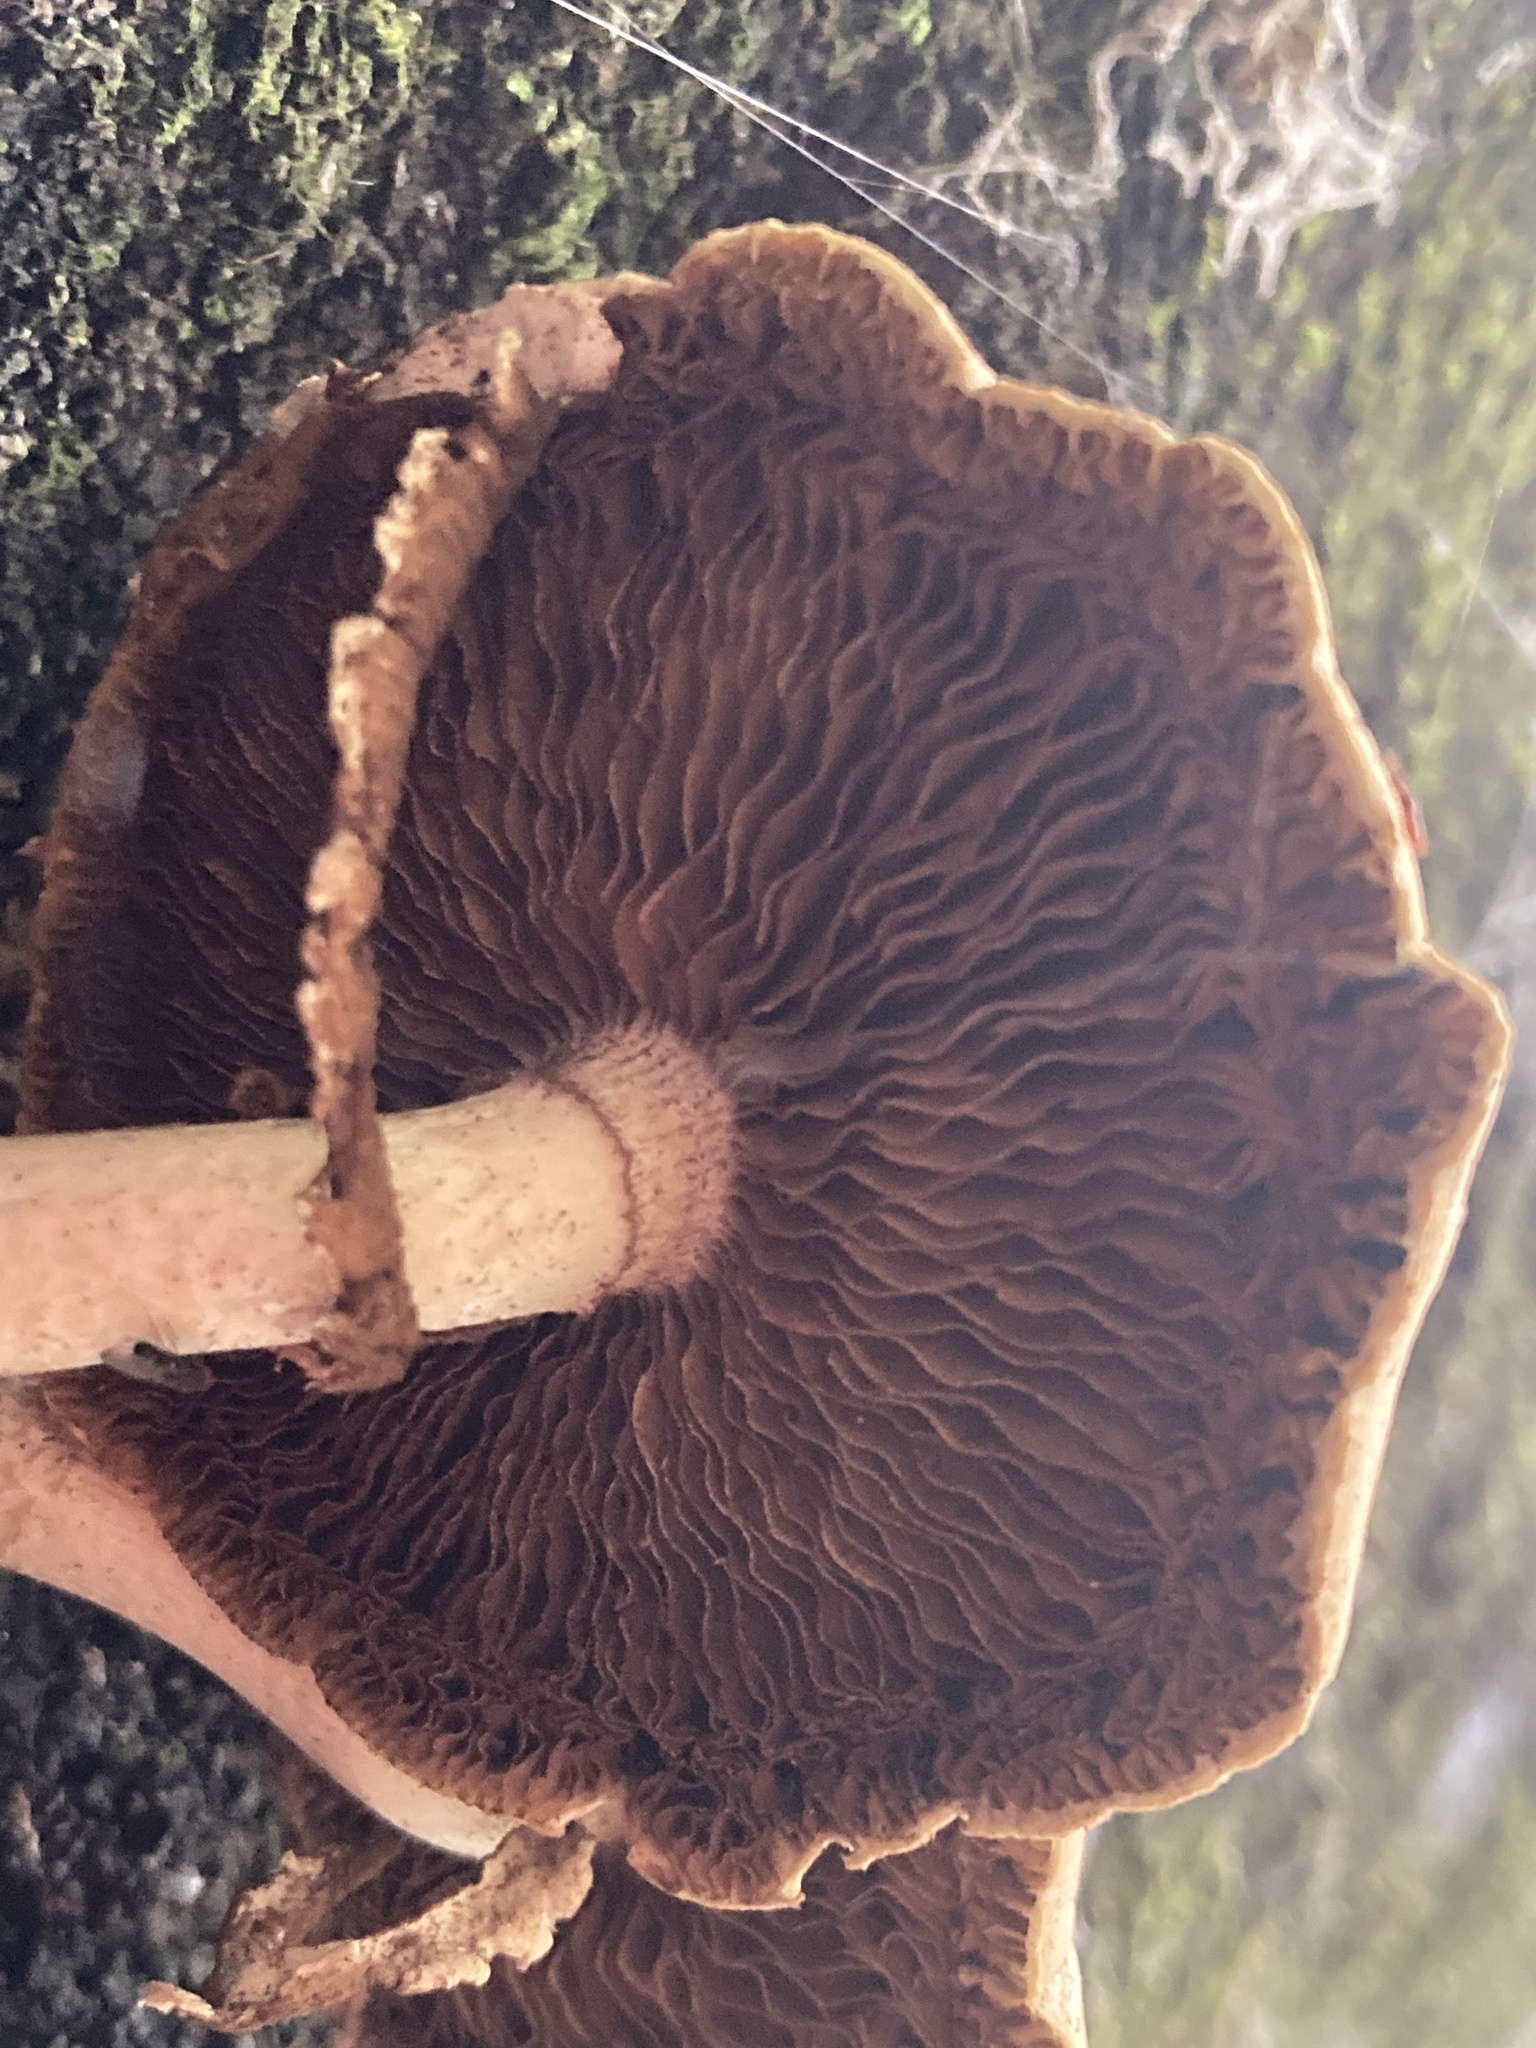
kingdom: Fungi
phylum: Basidiomycota
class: Agaricomycetes
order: Agaricales
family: Tubariaceae
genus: Cyclocybe
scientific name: Cyclocybe parasitica
